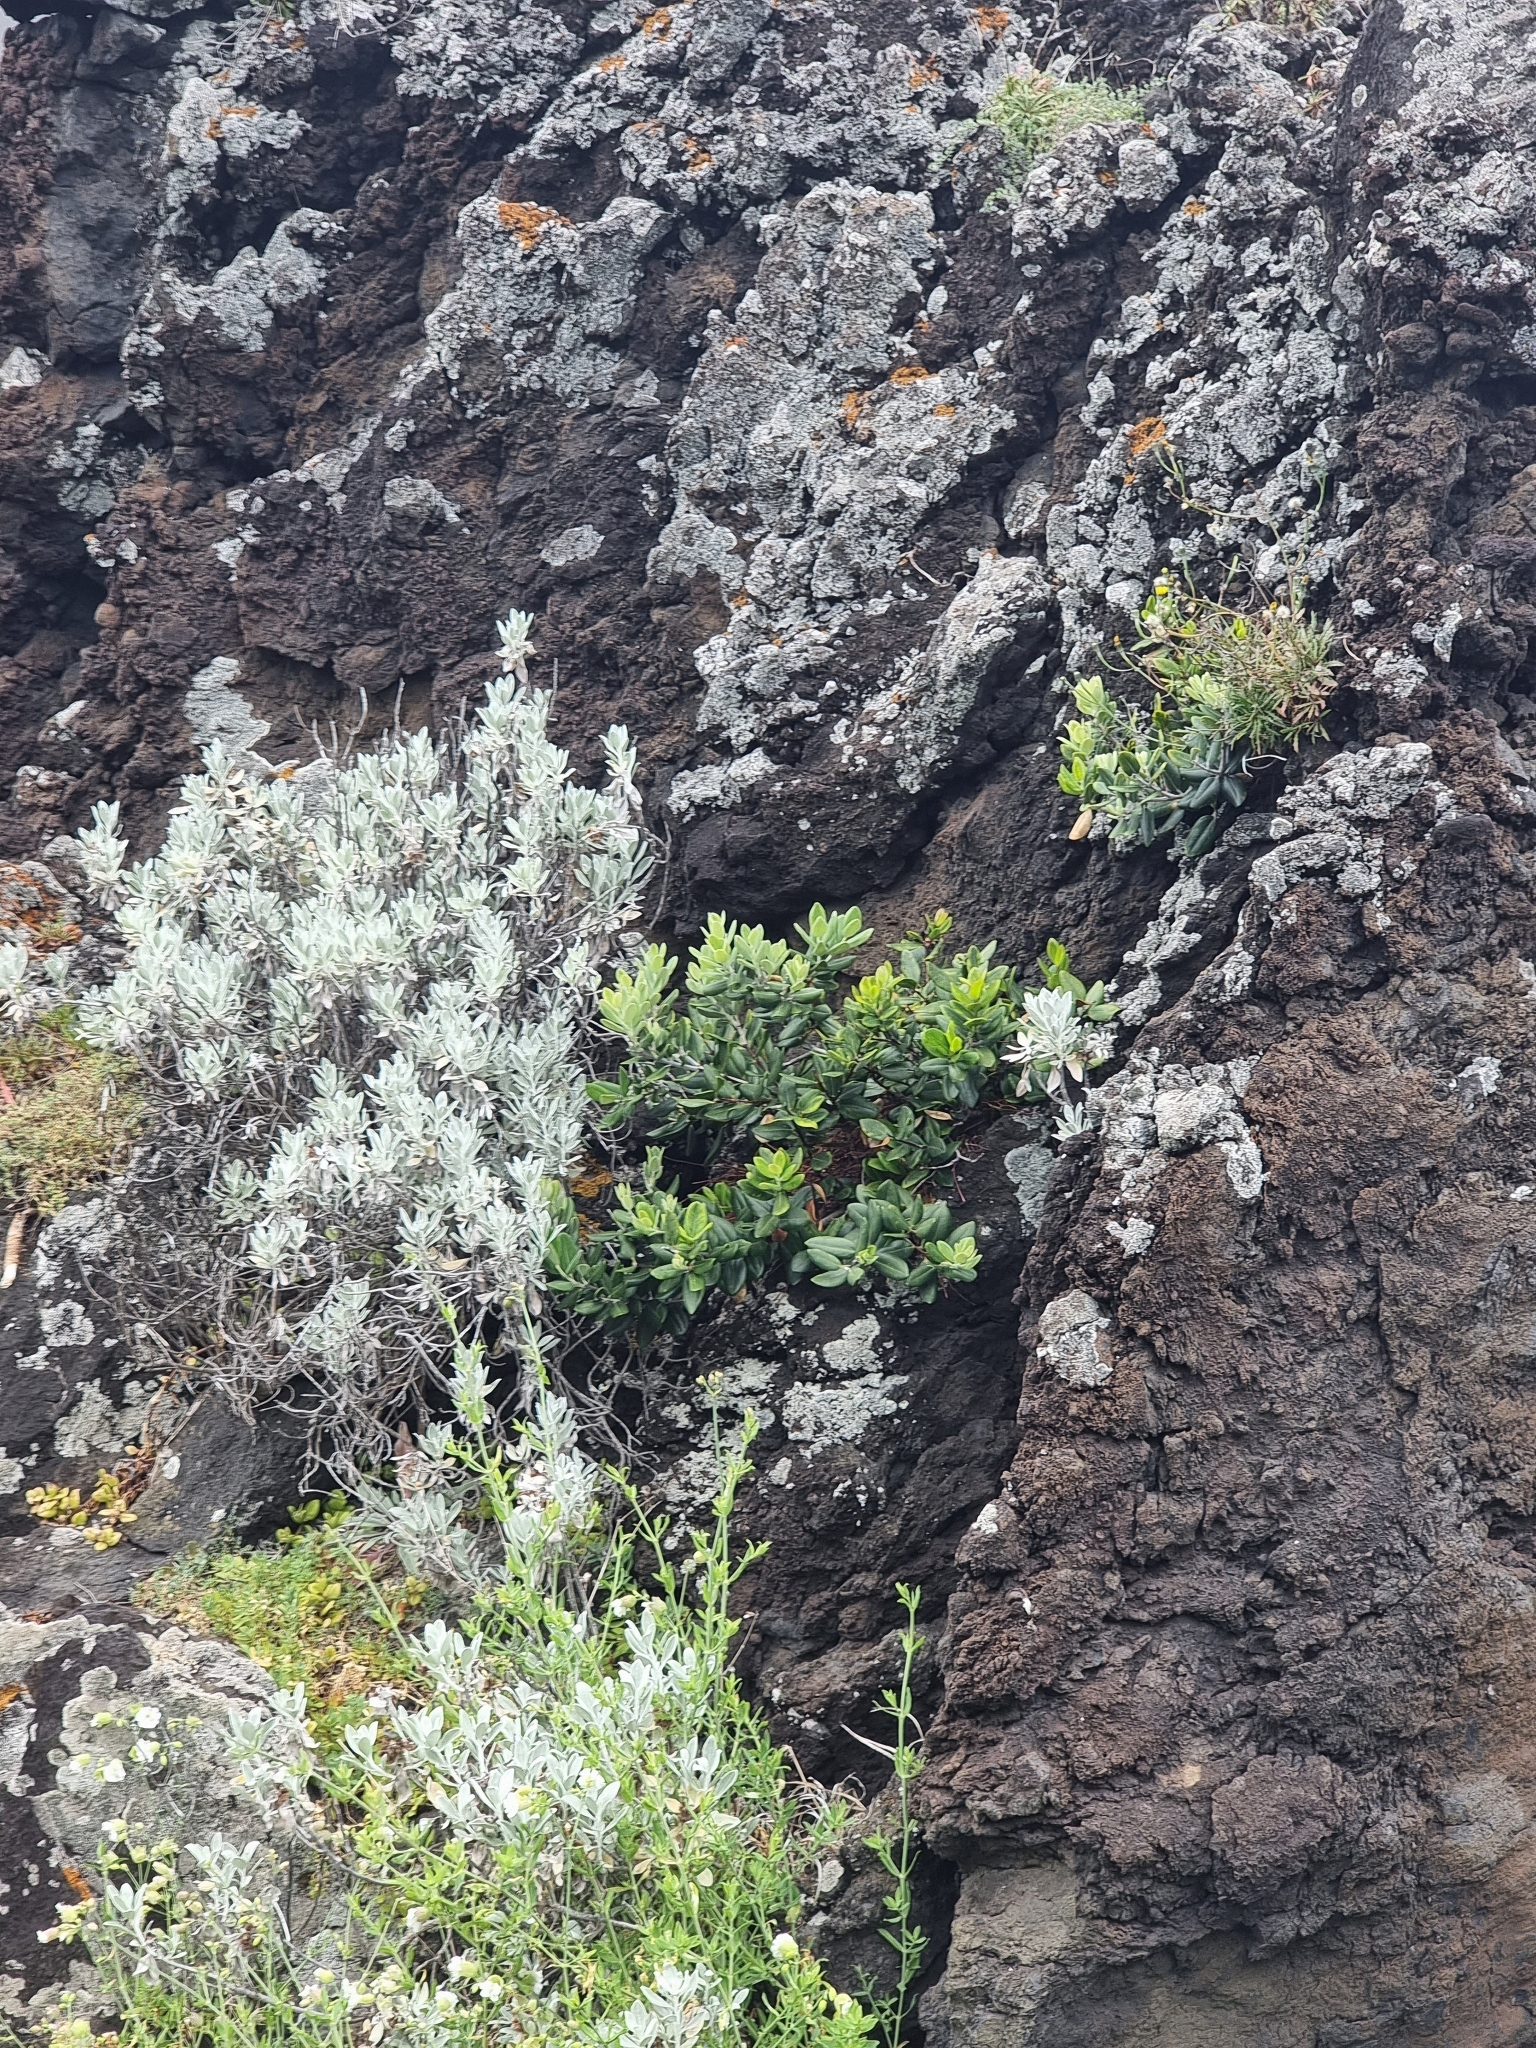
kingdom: Plantae
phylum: Tracheophyta
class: Magnoliopsida
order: Myrtales
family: Myrtaceae
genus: Metrosideros
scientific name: Metrosideros excelsa
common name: New zealand christmastree
